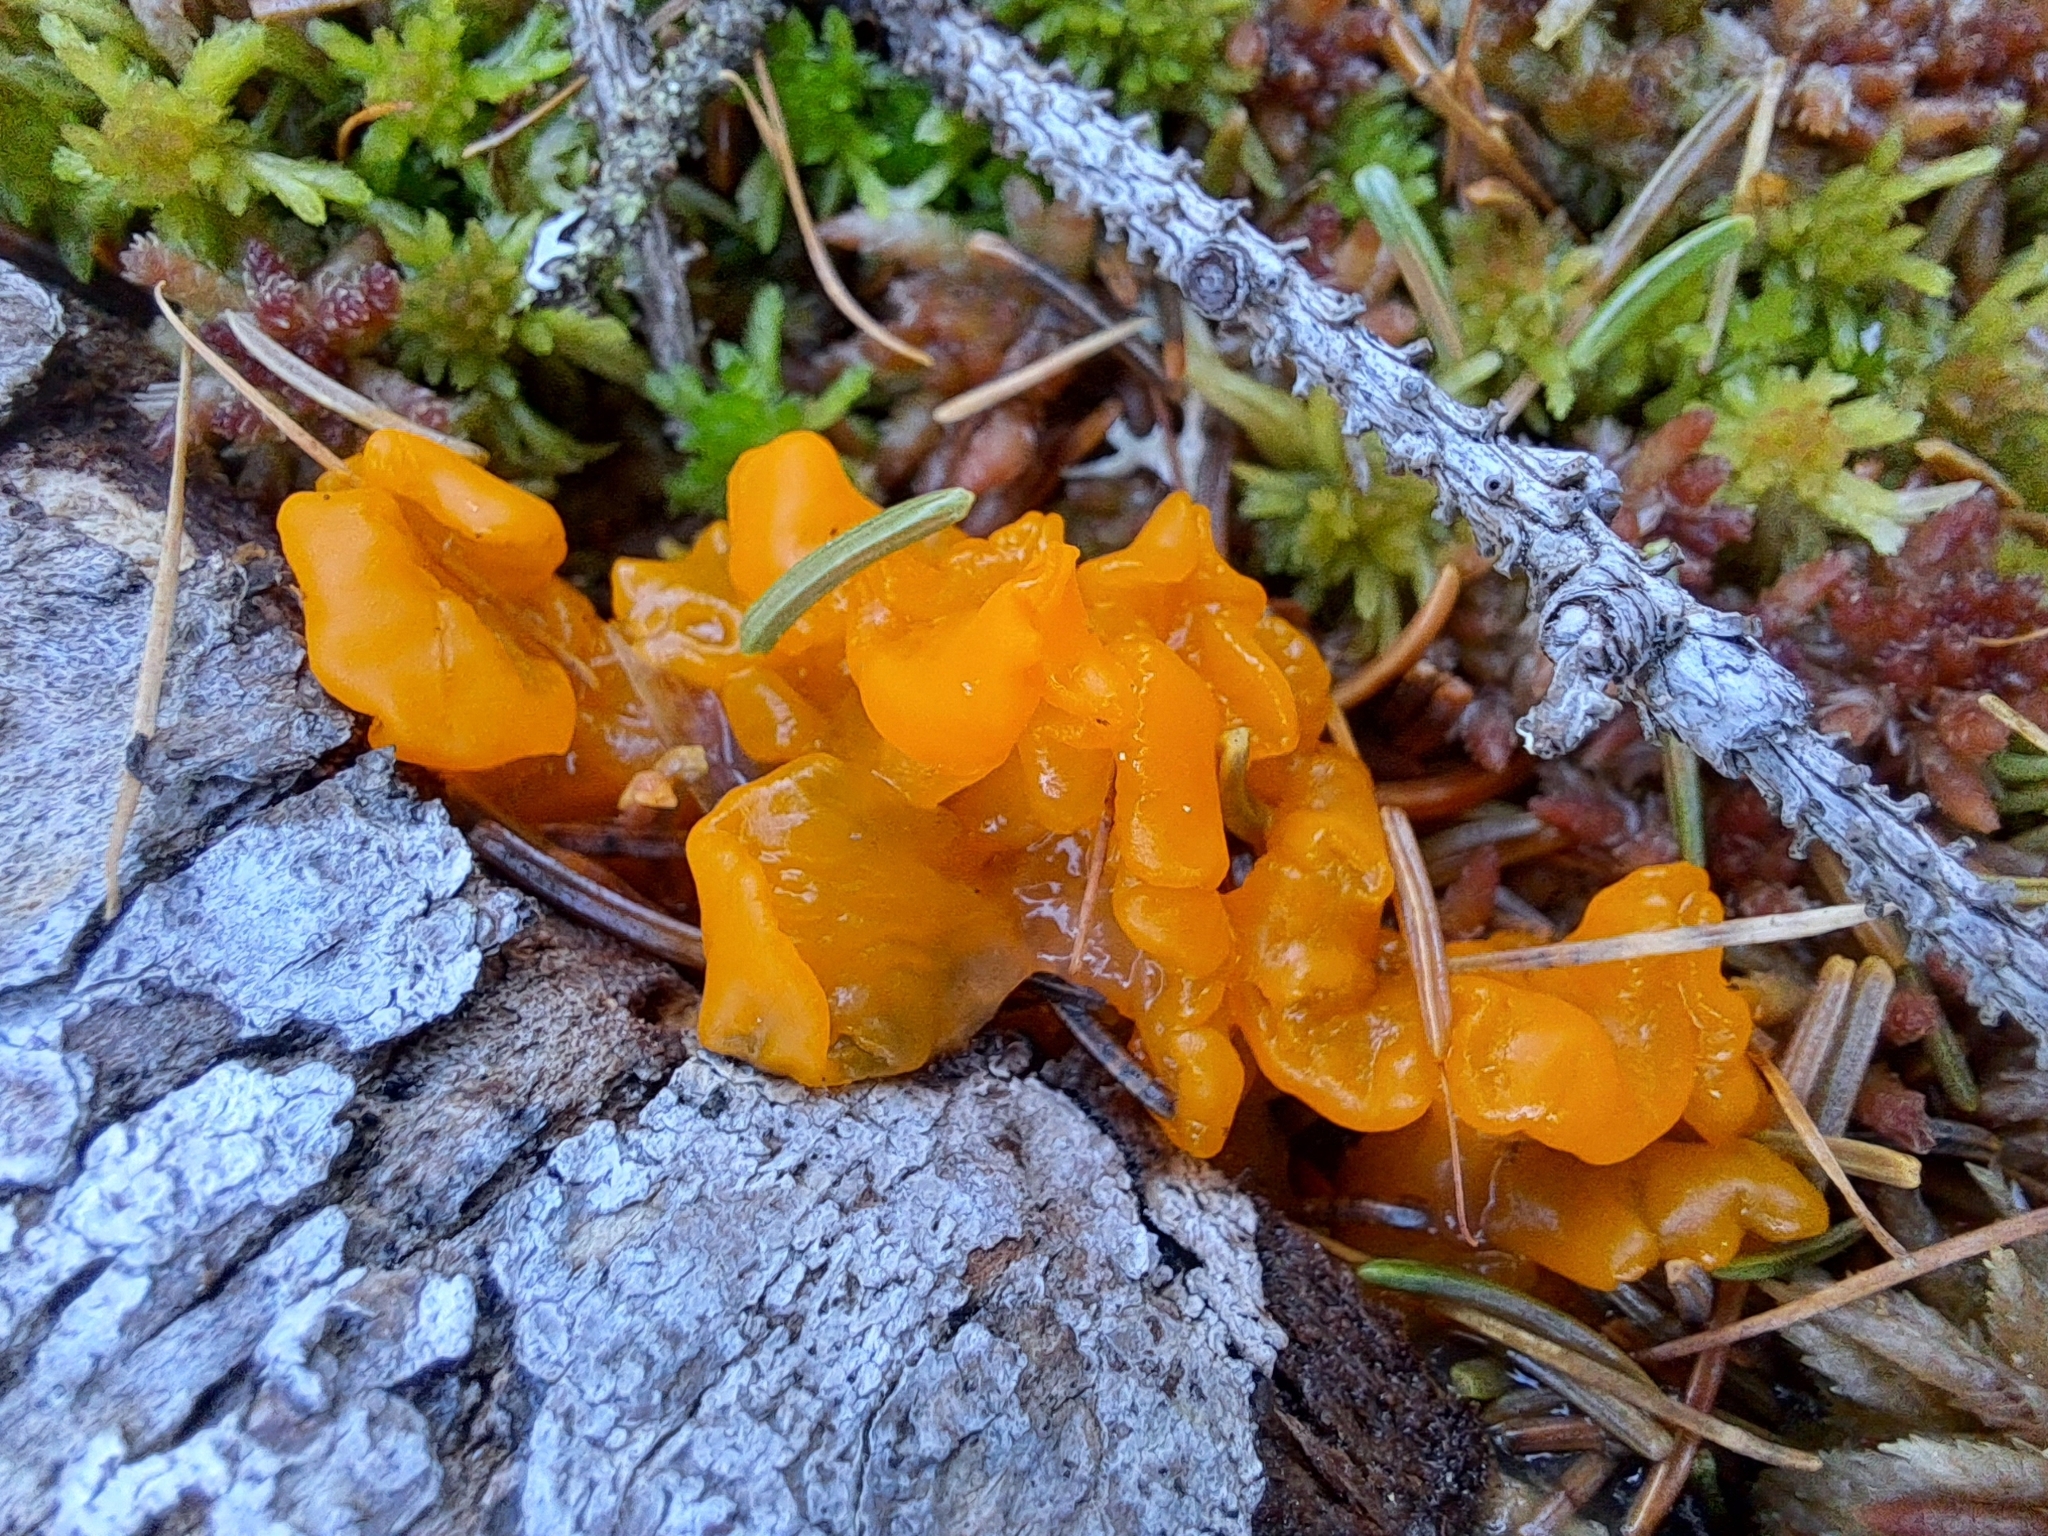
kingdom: Fungi
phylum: Basidiomycota
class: Dacrymycetes
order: Dacrymycetales
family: Dacrymycetaceae
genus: Dacrymyces
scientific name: Dacrymyces chrysospermus
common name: Orange jelly spot
